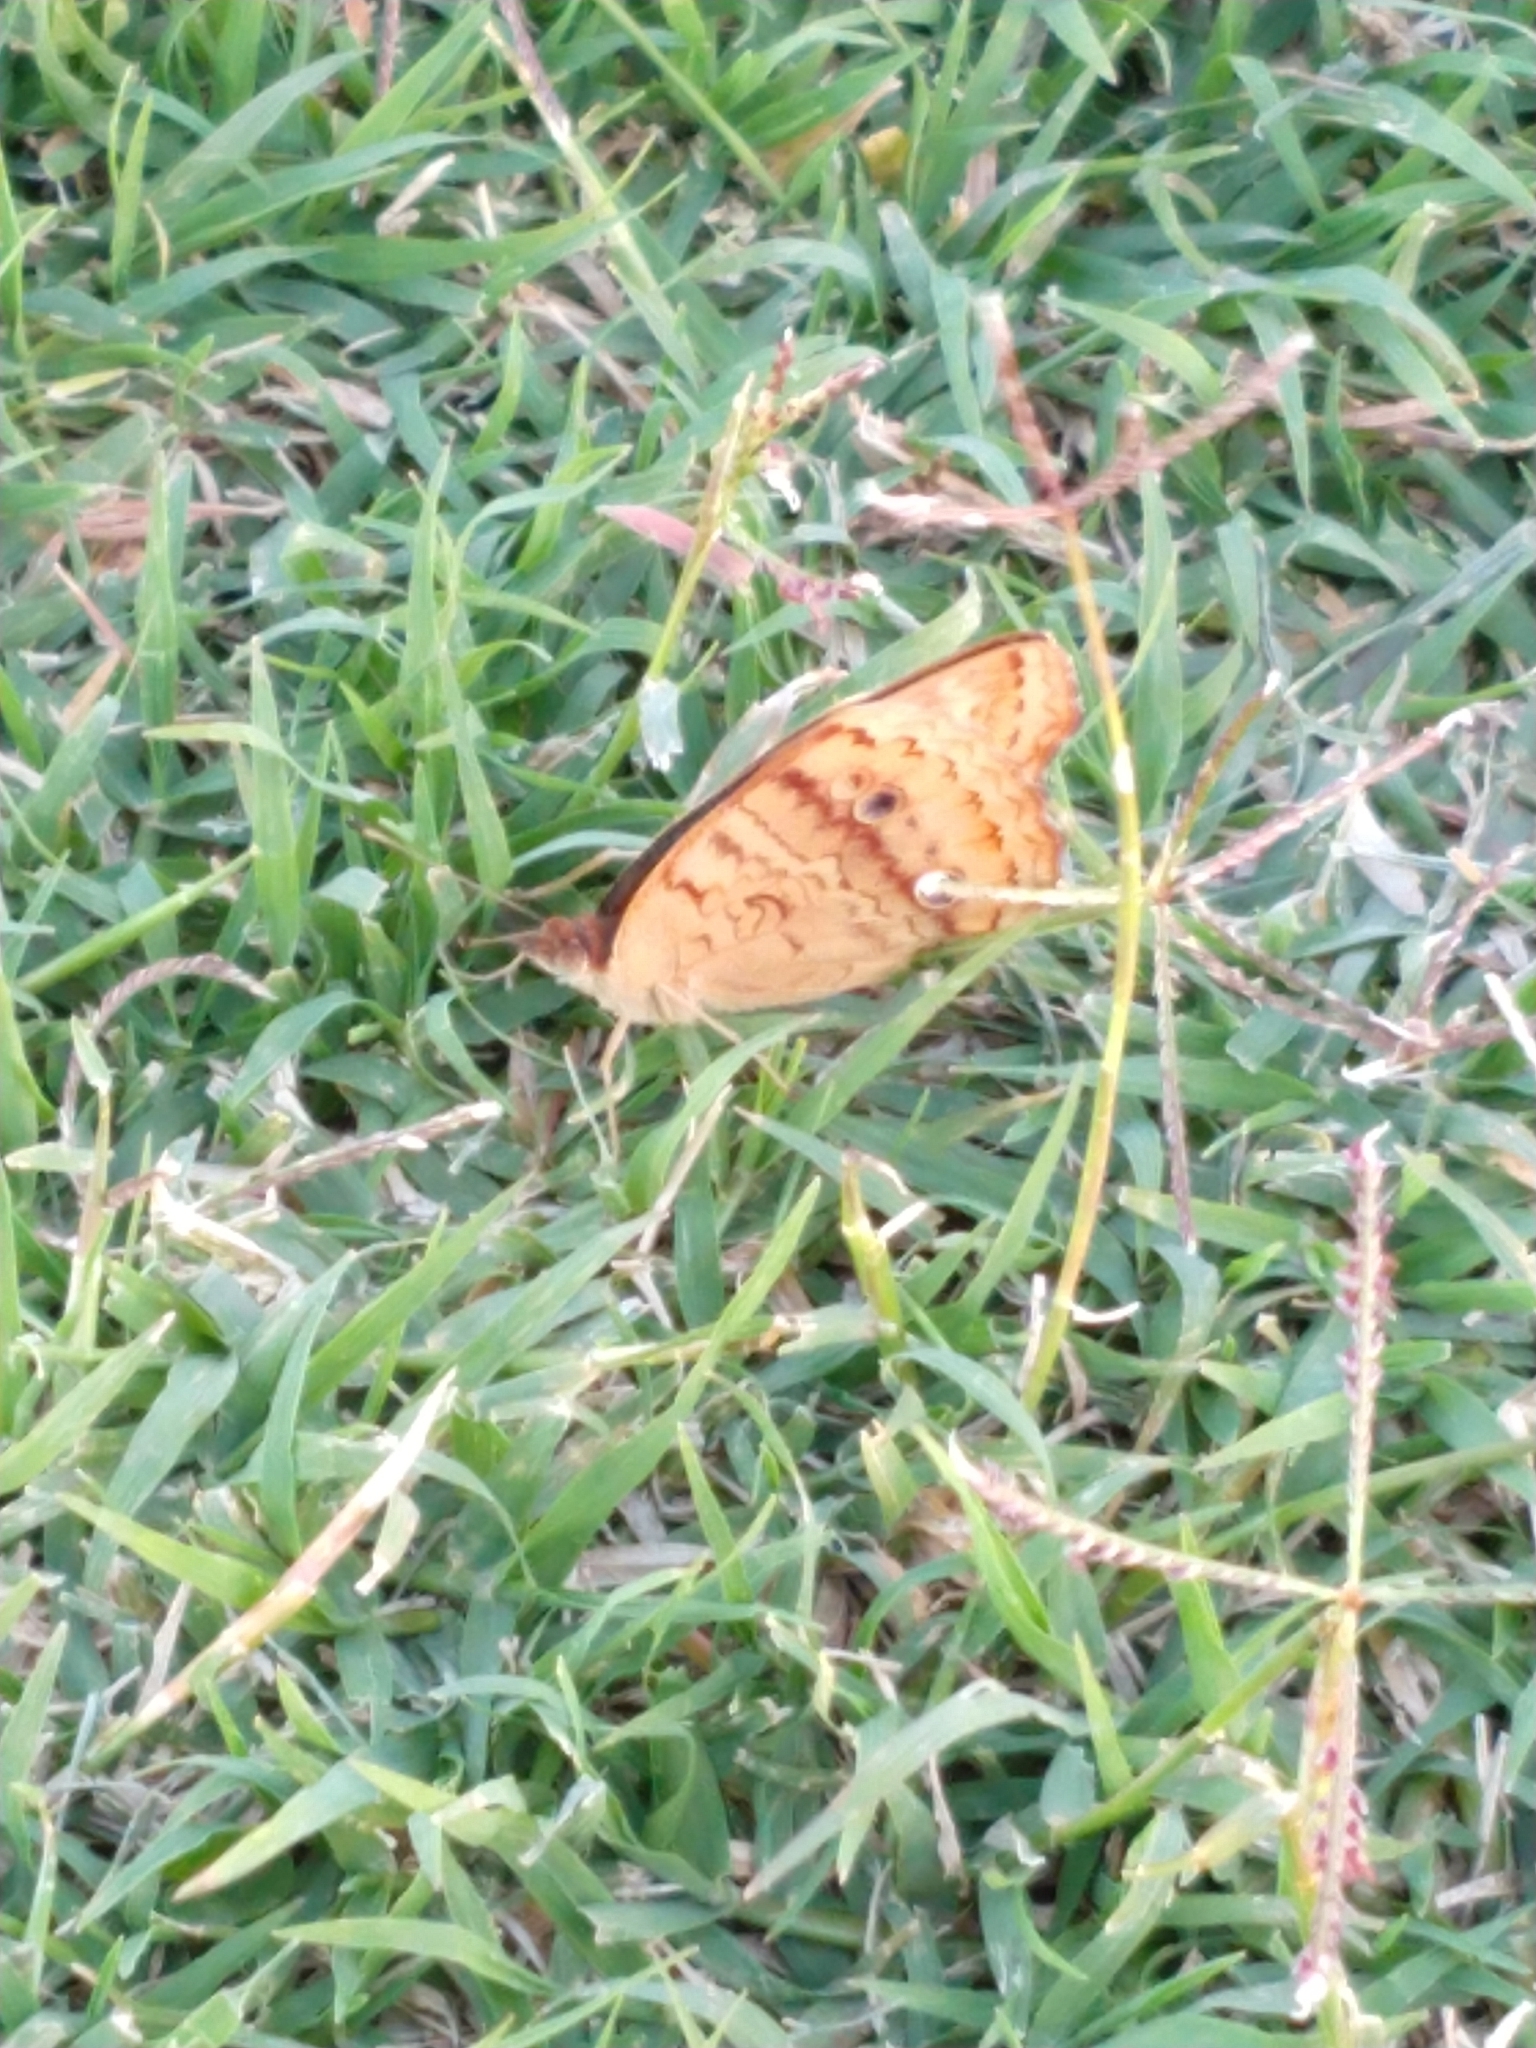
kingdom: Animalia
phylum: Arthropoda
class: Insecta
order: Lepidoptera
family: Nymphalidae
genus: Junonia
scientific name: Junonia lavinia
